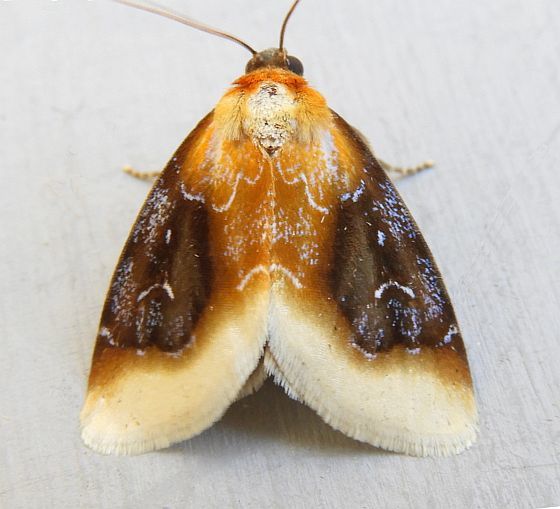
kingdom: Animalia
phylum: Arthropoda
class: Insecta
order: Lepidoptera
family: Noctuidae
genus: Chrysoecia
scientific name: Chrysoecia scira
